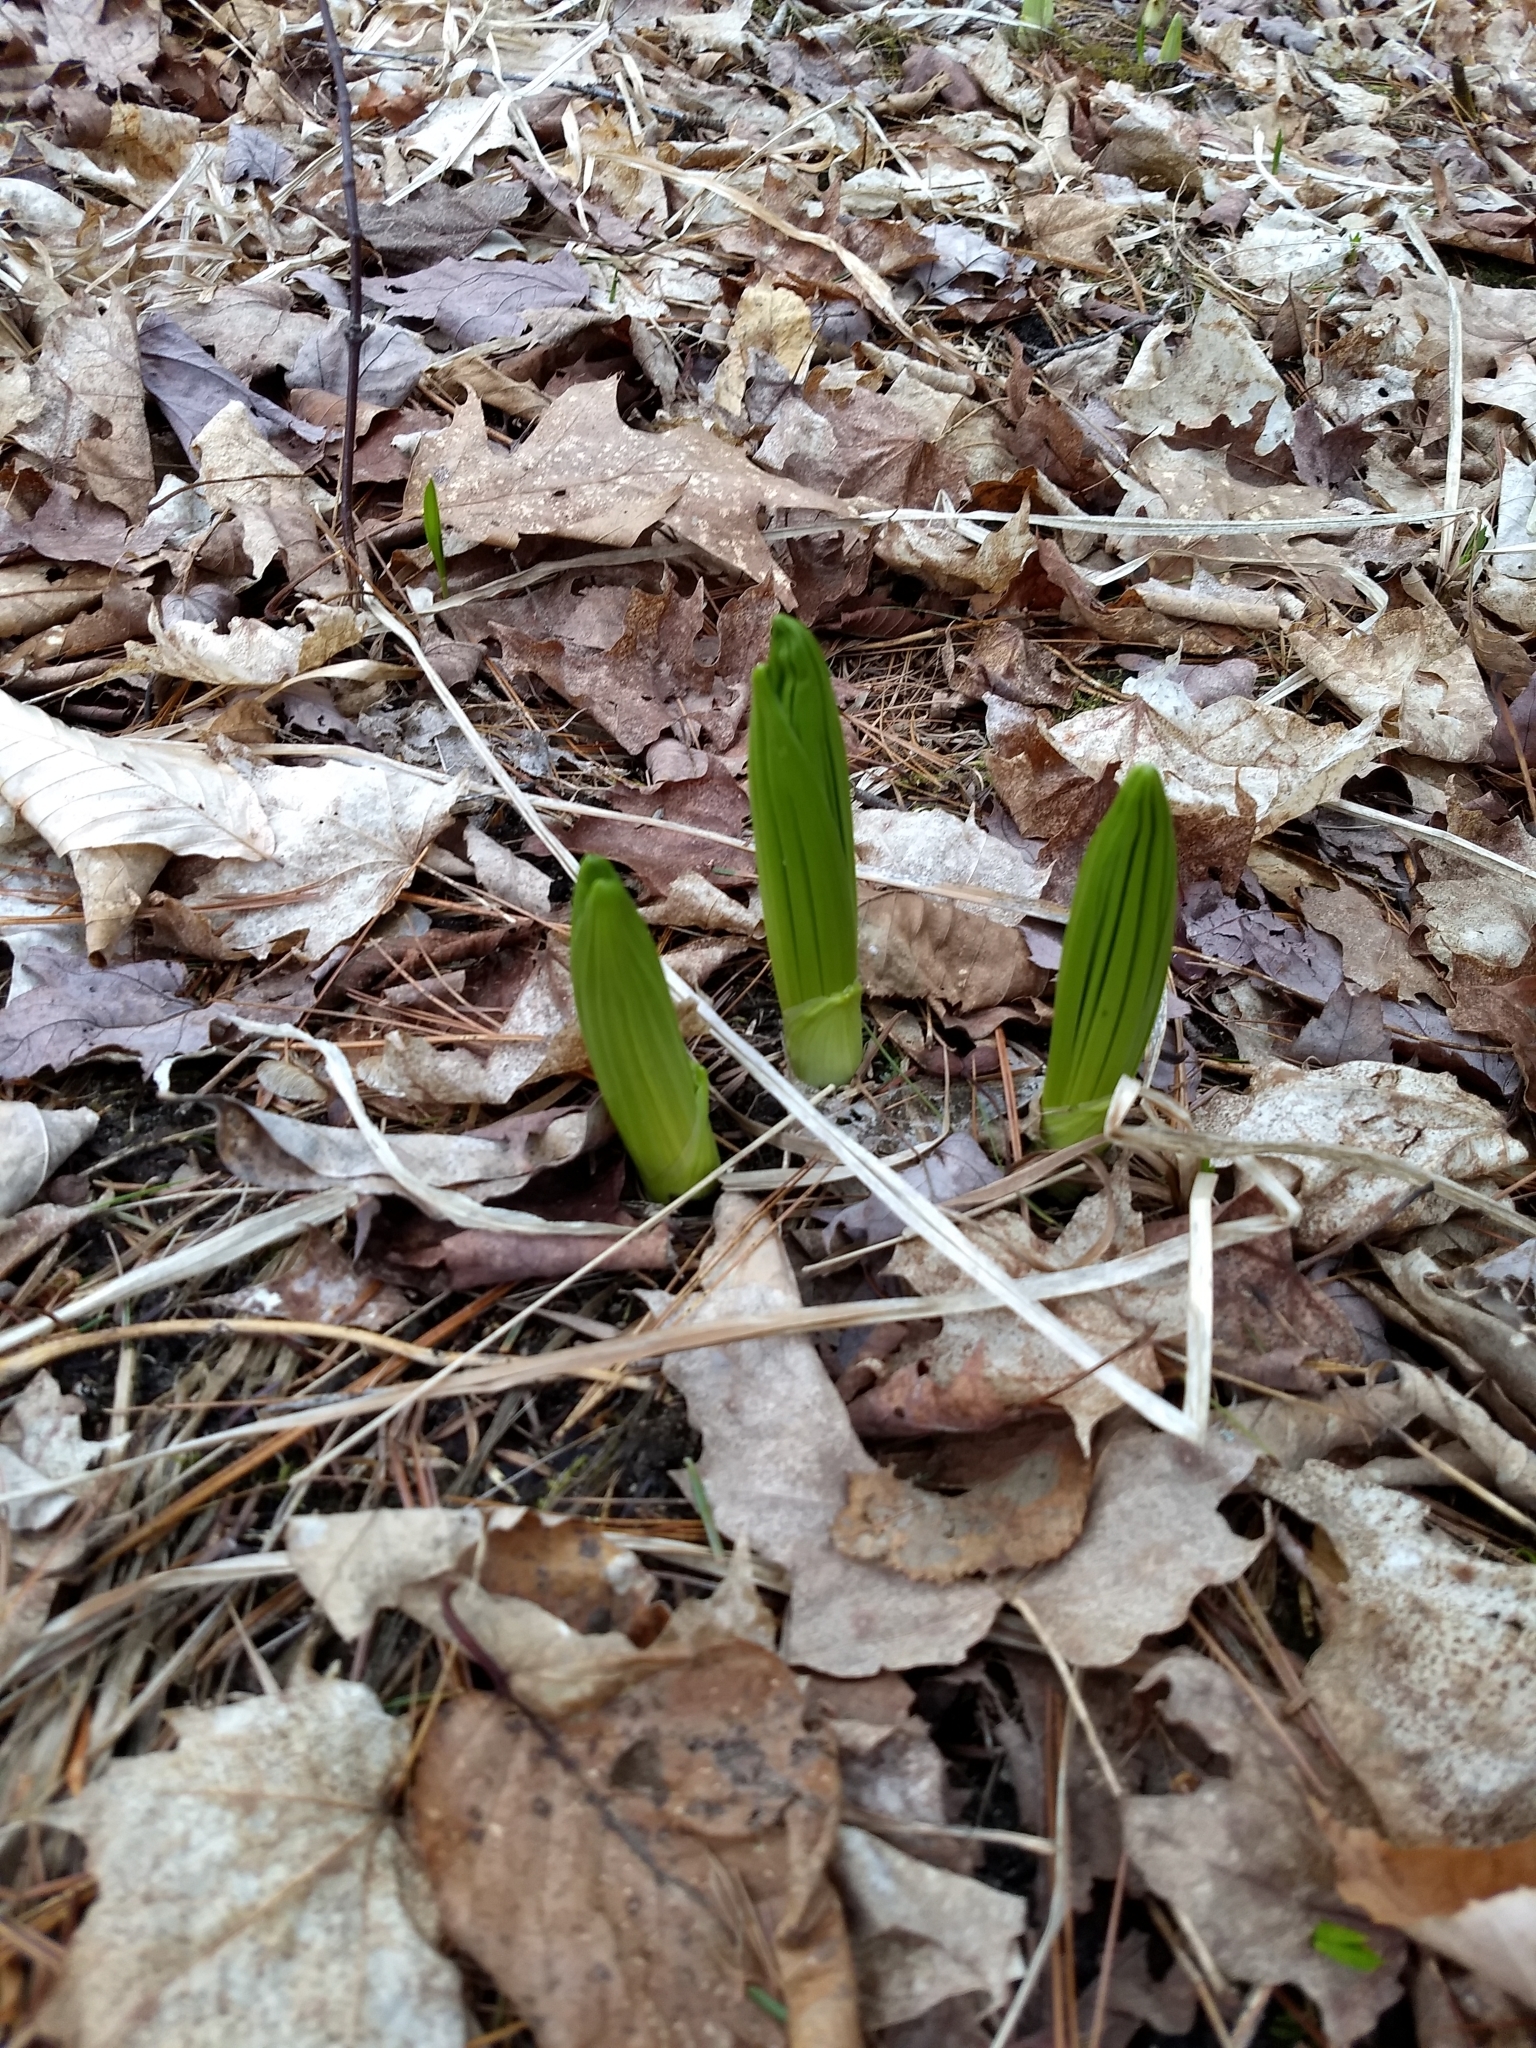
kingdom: Plantae
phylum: Tracheophyta
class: Liliopsida
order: Liliales
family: Melanthiaceae
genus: Veratrum
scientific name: Veratrum viride
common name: American false hellebore
